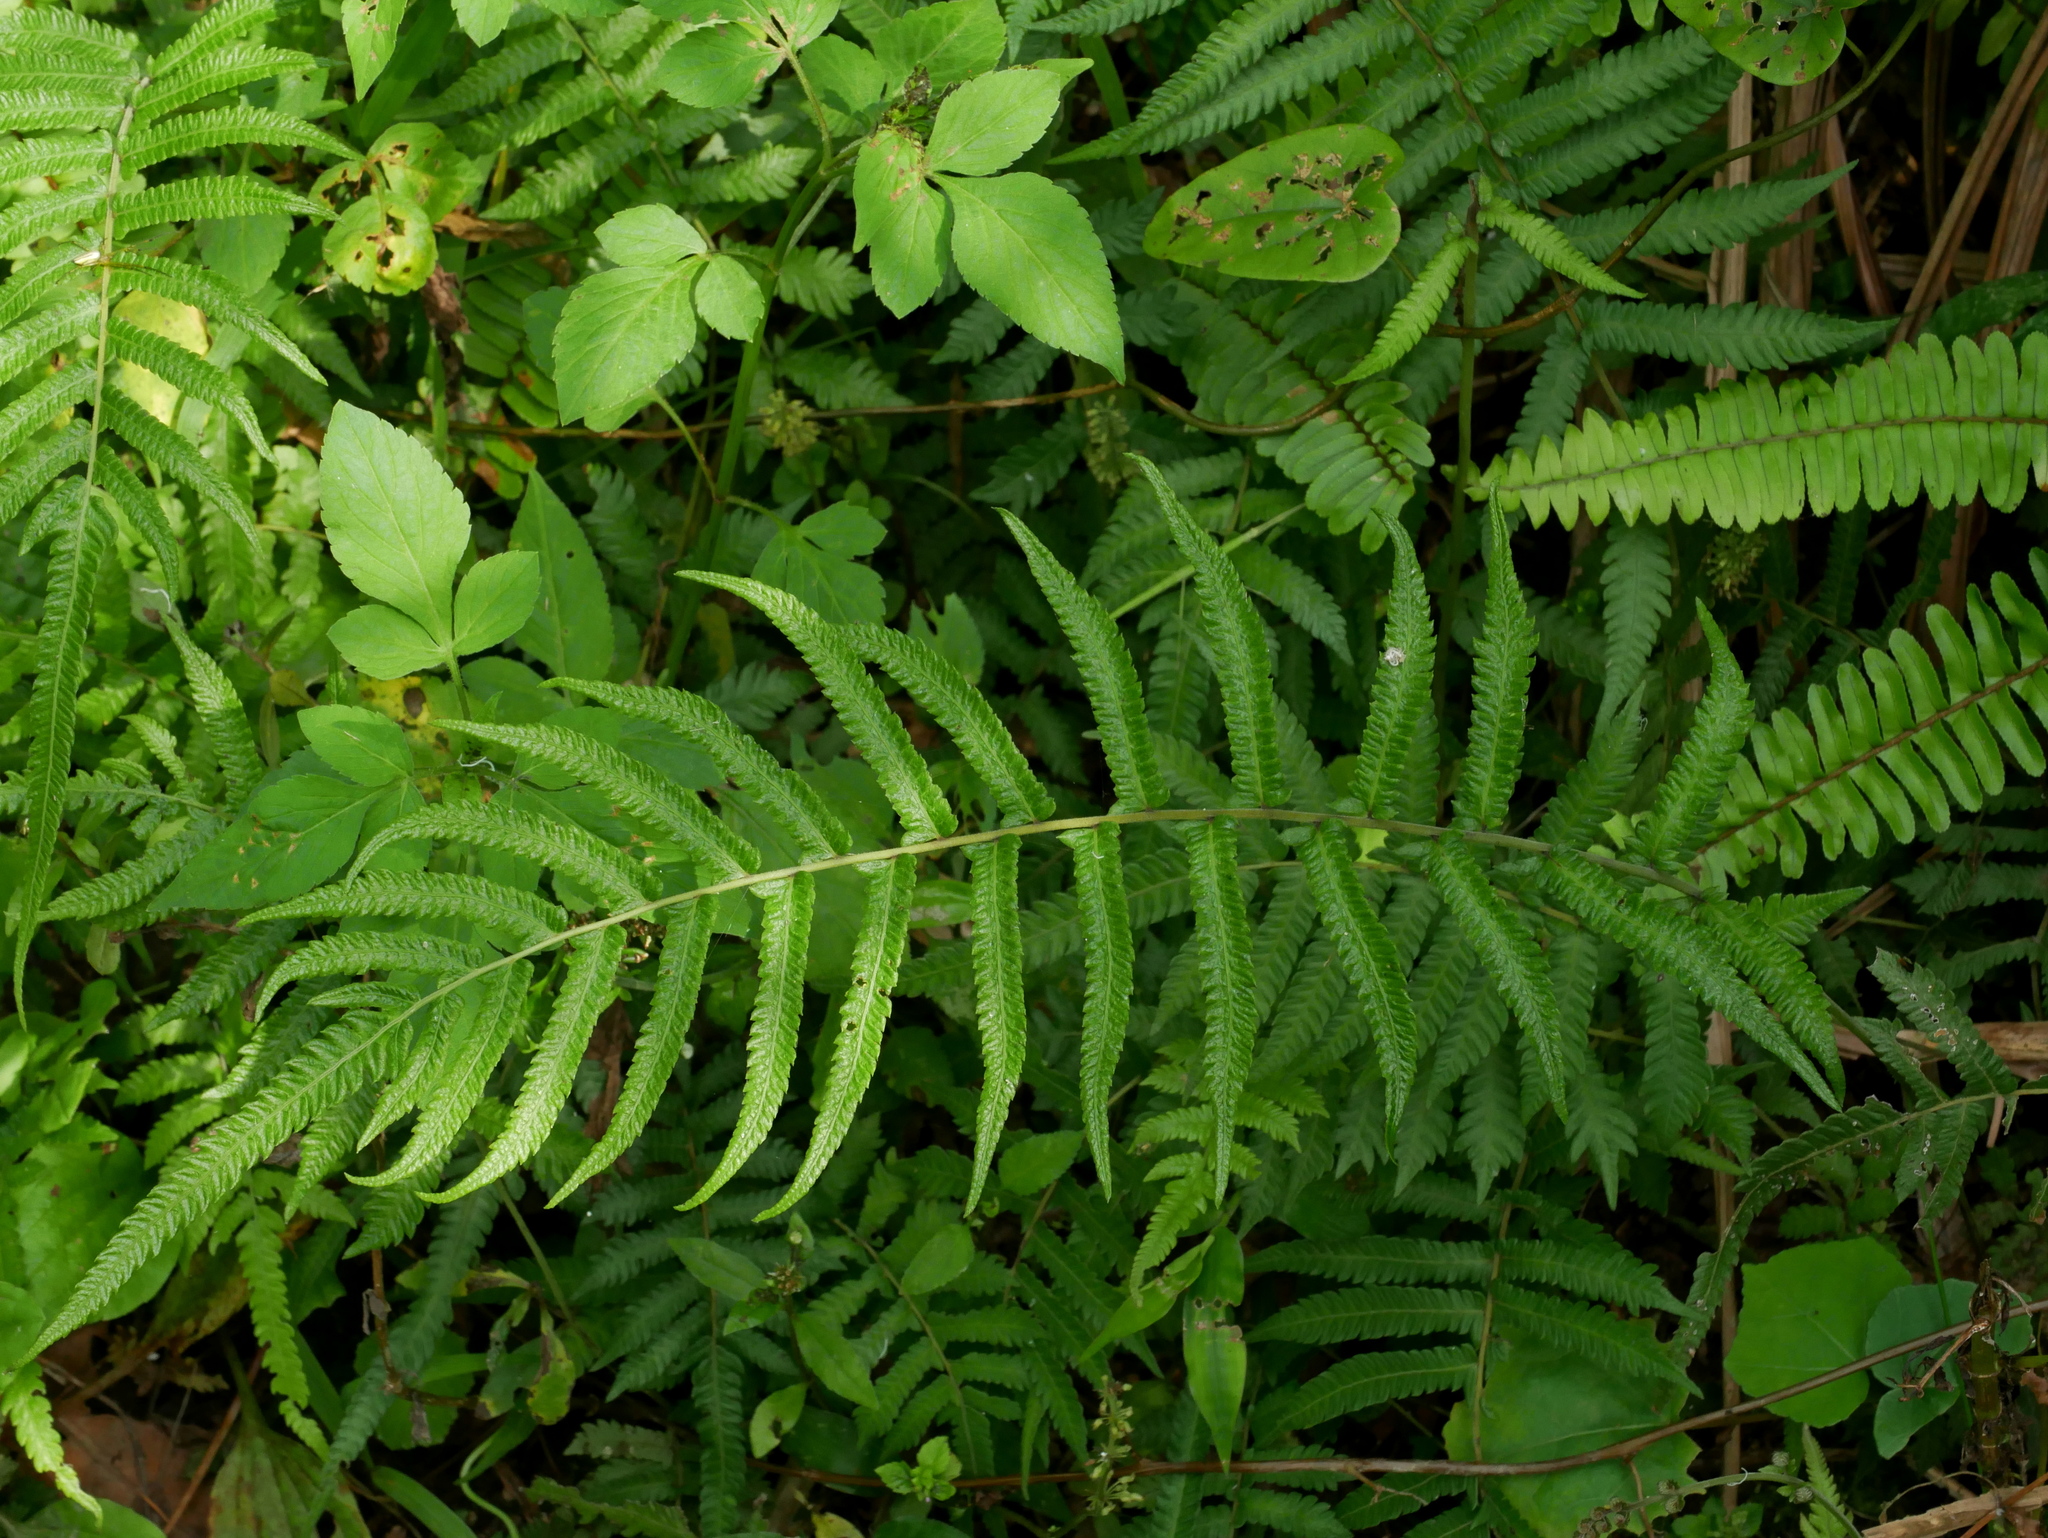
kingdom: Plantae
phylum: Tracheophyta
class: Polypodiopsida
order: Polypodiales
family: Thelypteridaceae
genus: Christella
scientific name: Christella acuminata
